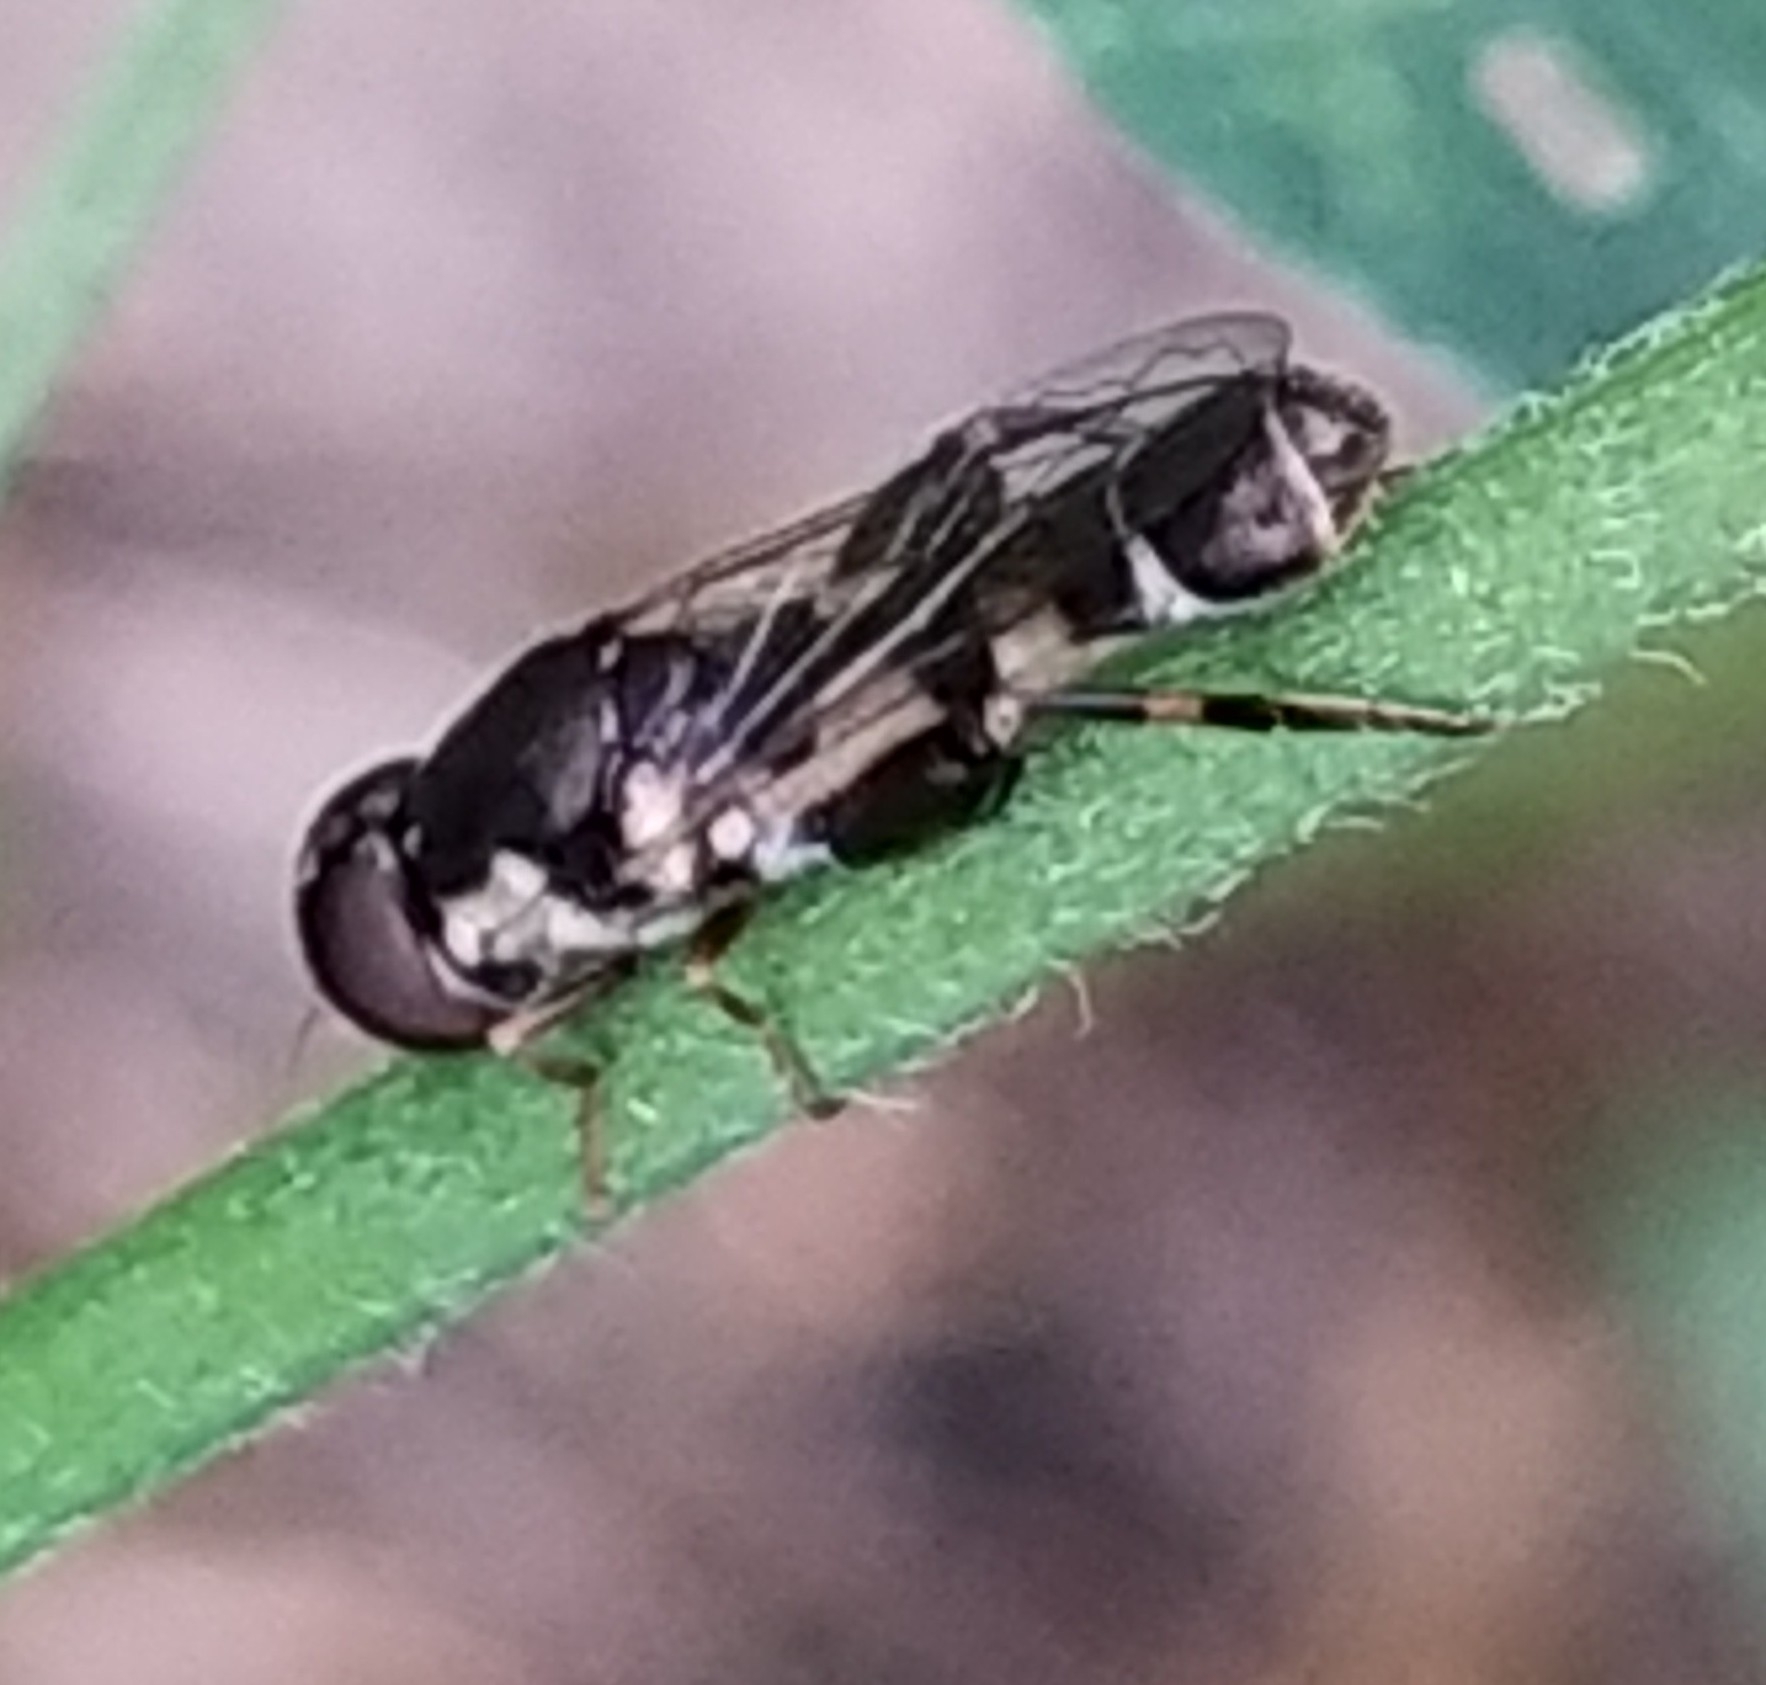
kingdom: Animalia
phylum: Arthropoda
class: Insecta
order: Diptera
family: Syrphidae
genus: Syritta
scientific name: Syritta pipiens
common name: Hover fly
